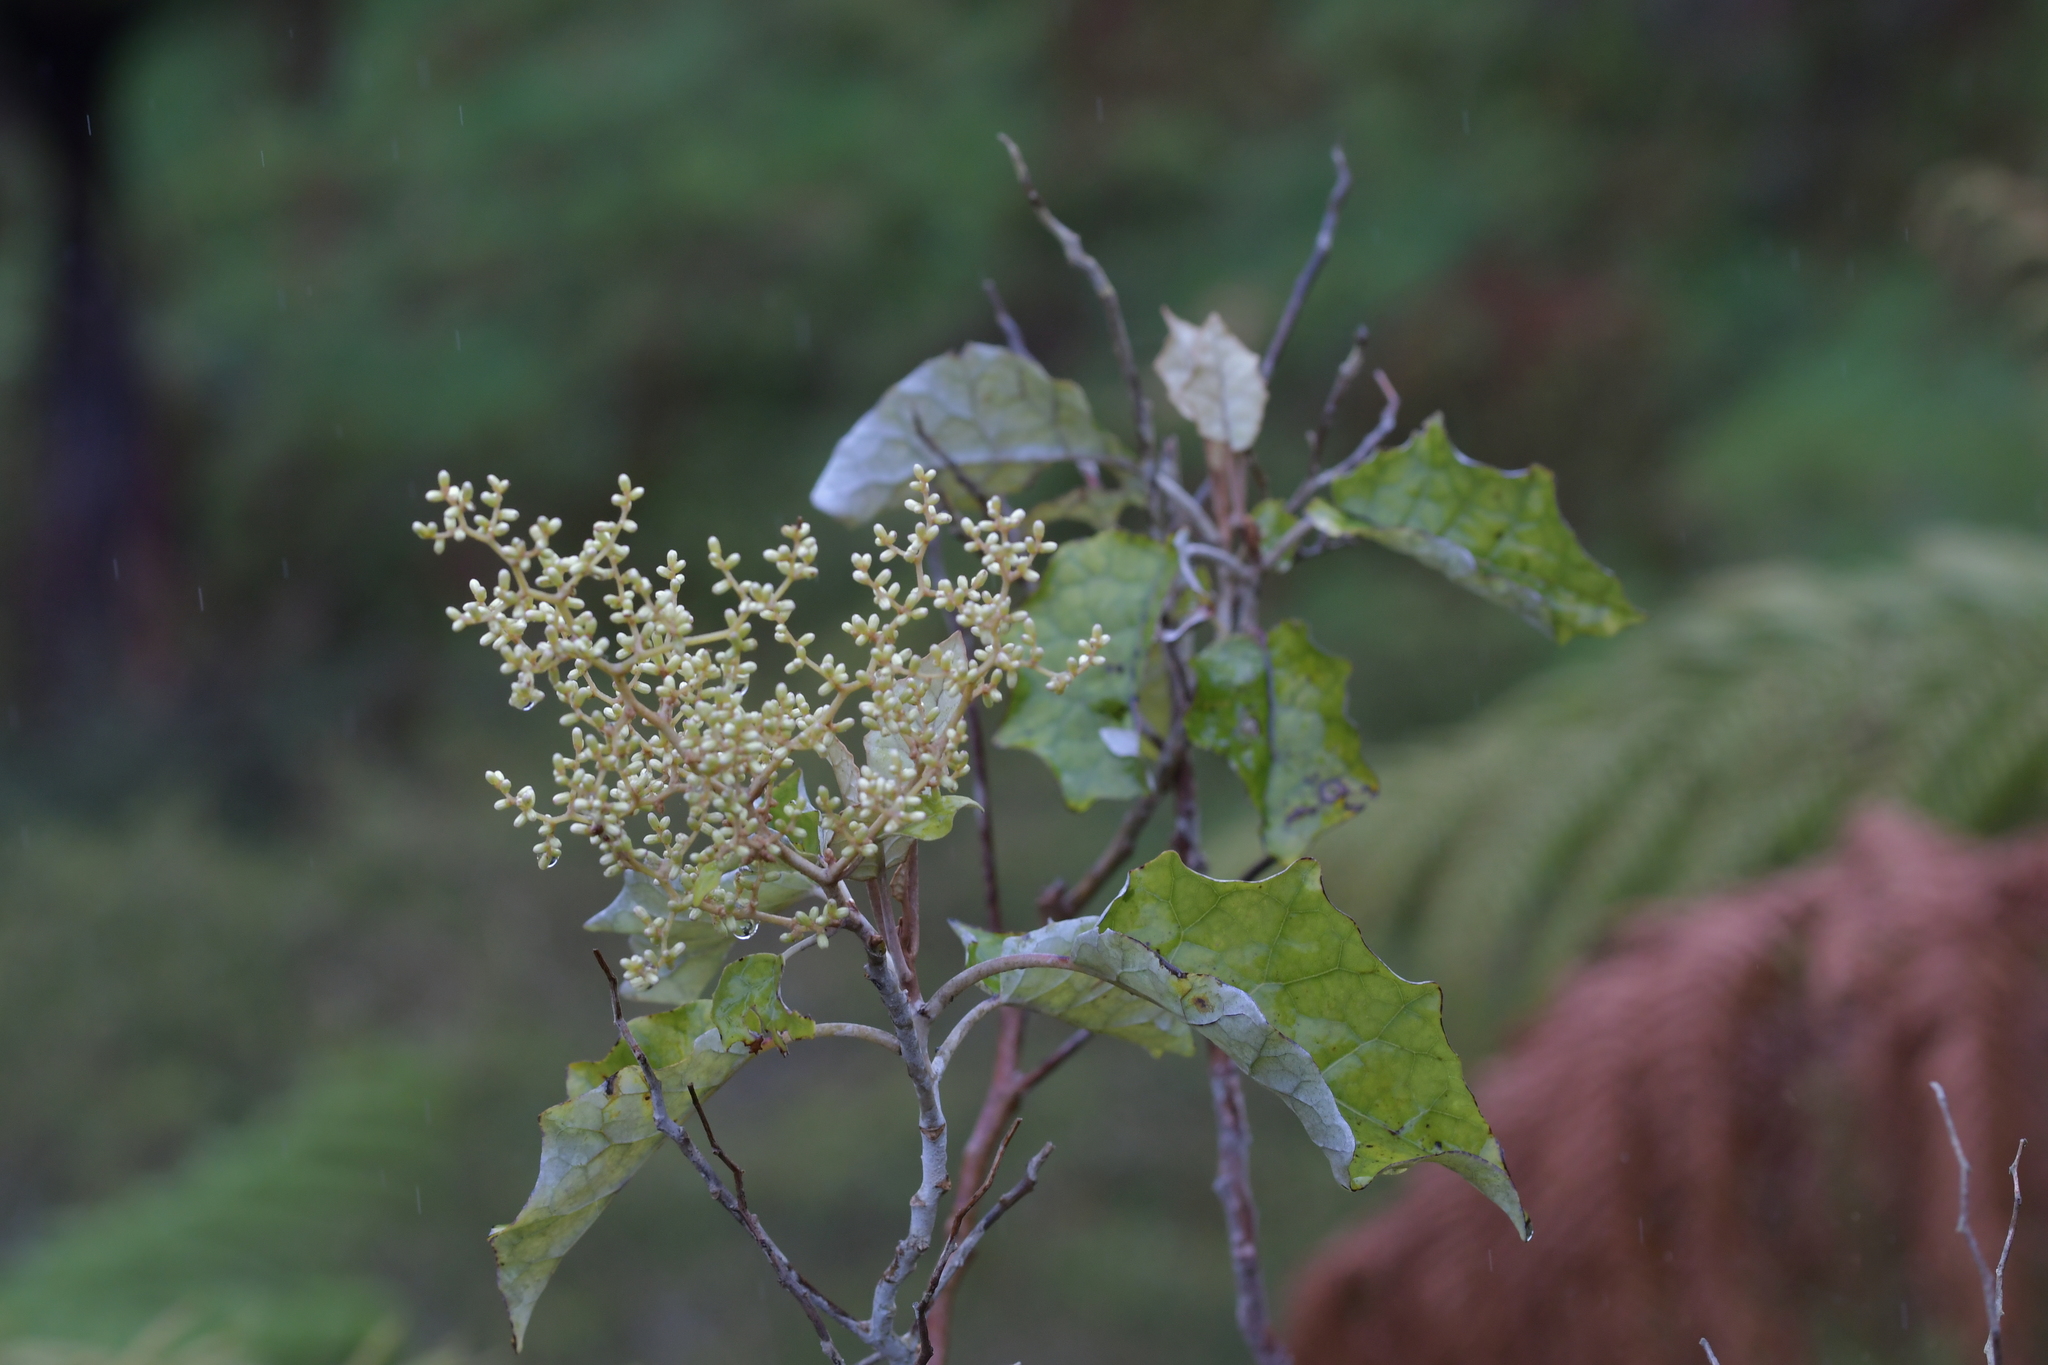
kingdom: Plantae
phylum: Tracheophyta
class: Magnoliopsida
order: Asterales
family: Asteraceae
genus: Brachyglottis
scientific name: Brachyglottis repanda
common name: Hedge ragwort
